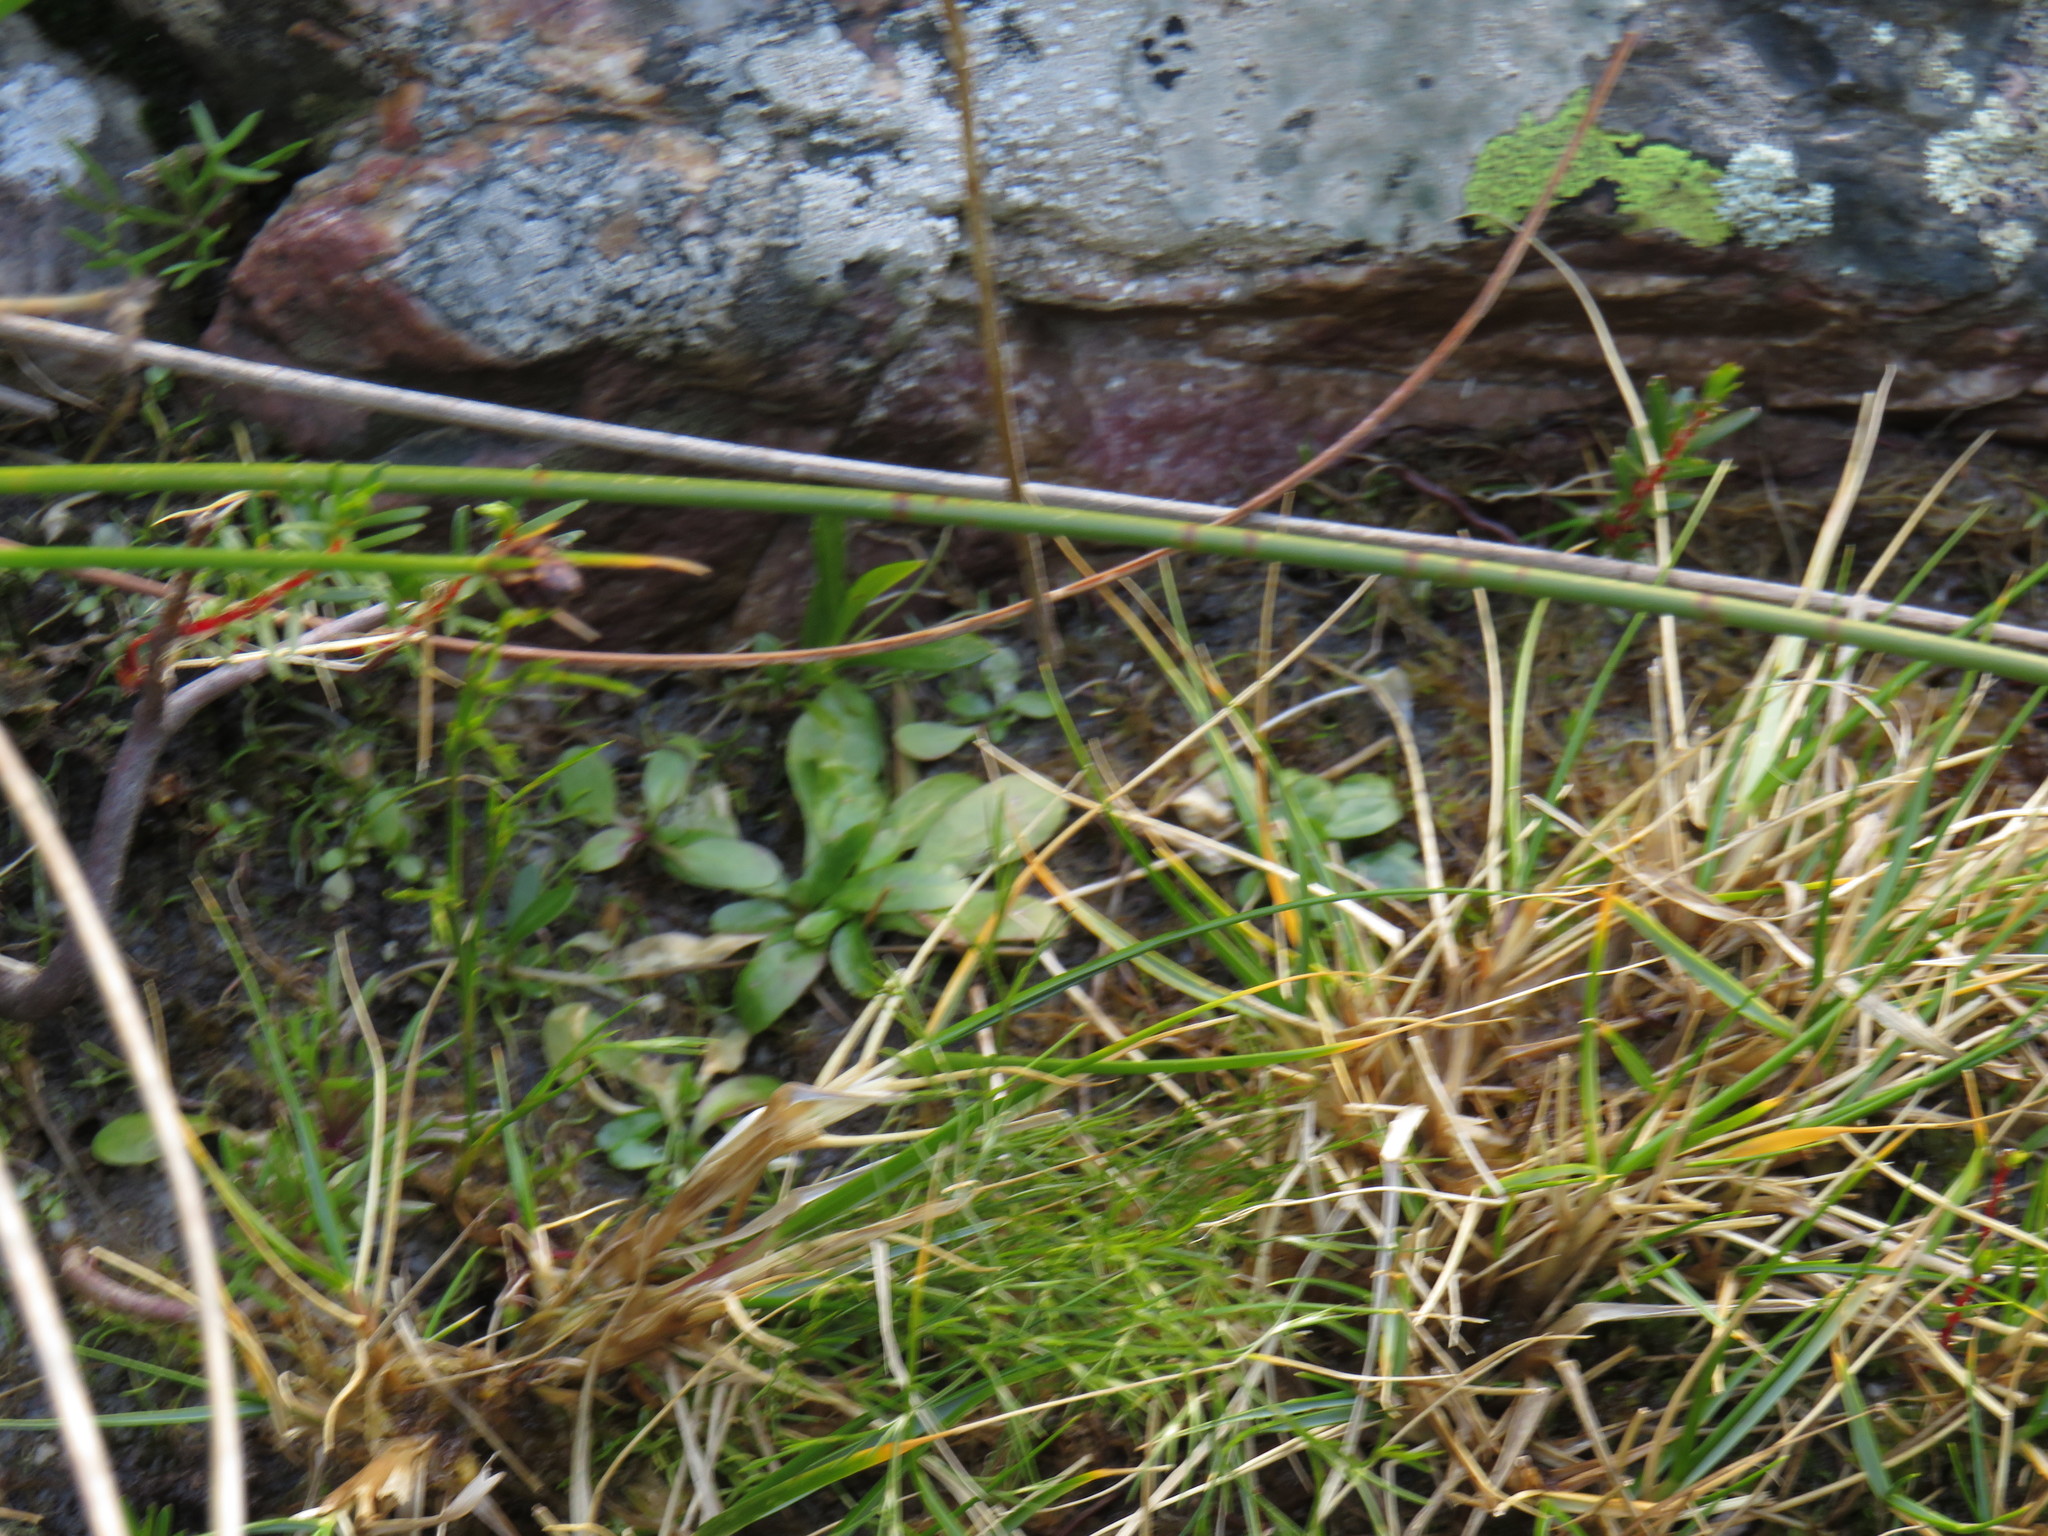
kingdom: Plantae
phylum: Tracheophyta
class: Magnoliopsida
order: Asterales
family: Campanulaceae
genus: Wimmerella
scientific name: Wimmerella arabidea
